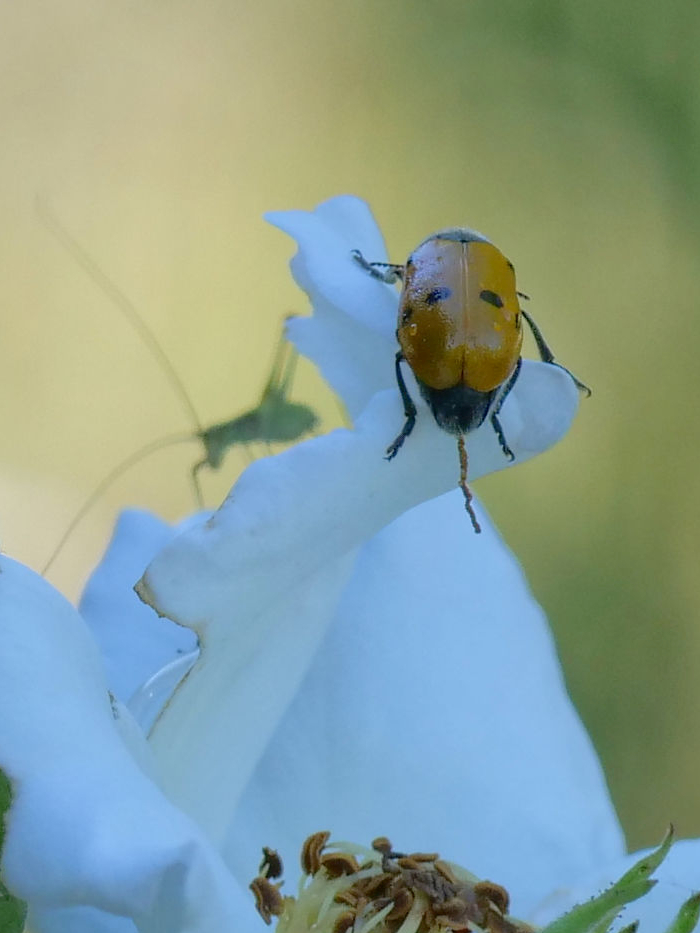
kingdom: Animalia
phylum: Arthropoda
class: Insecta
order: Coleoptera
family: Chrysomelidae
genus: Lachnaia
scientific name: Lachnaia italica
